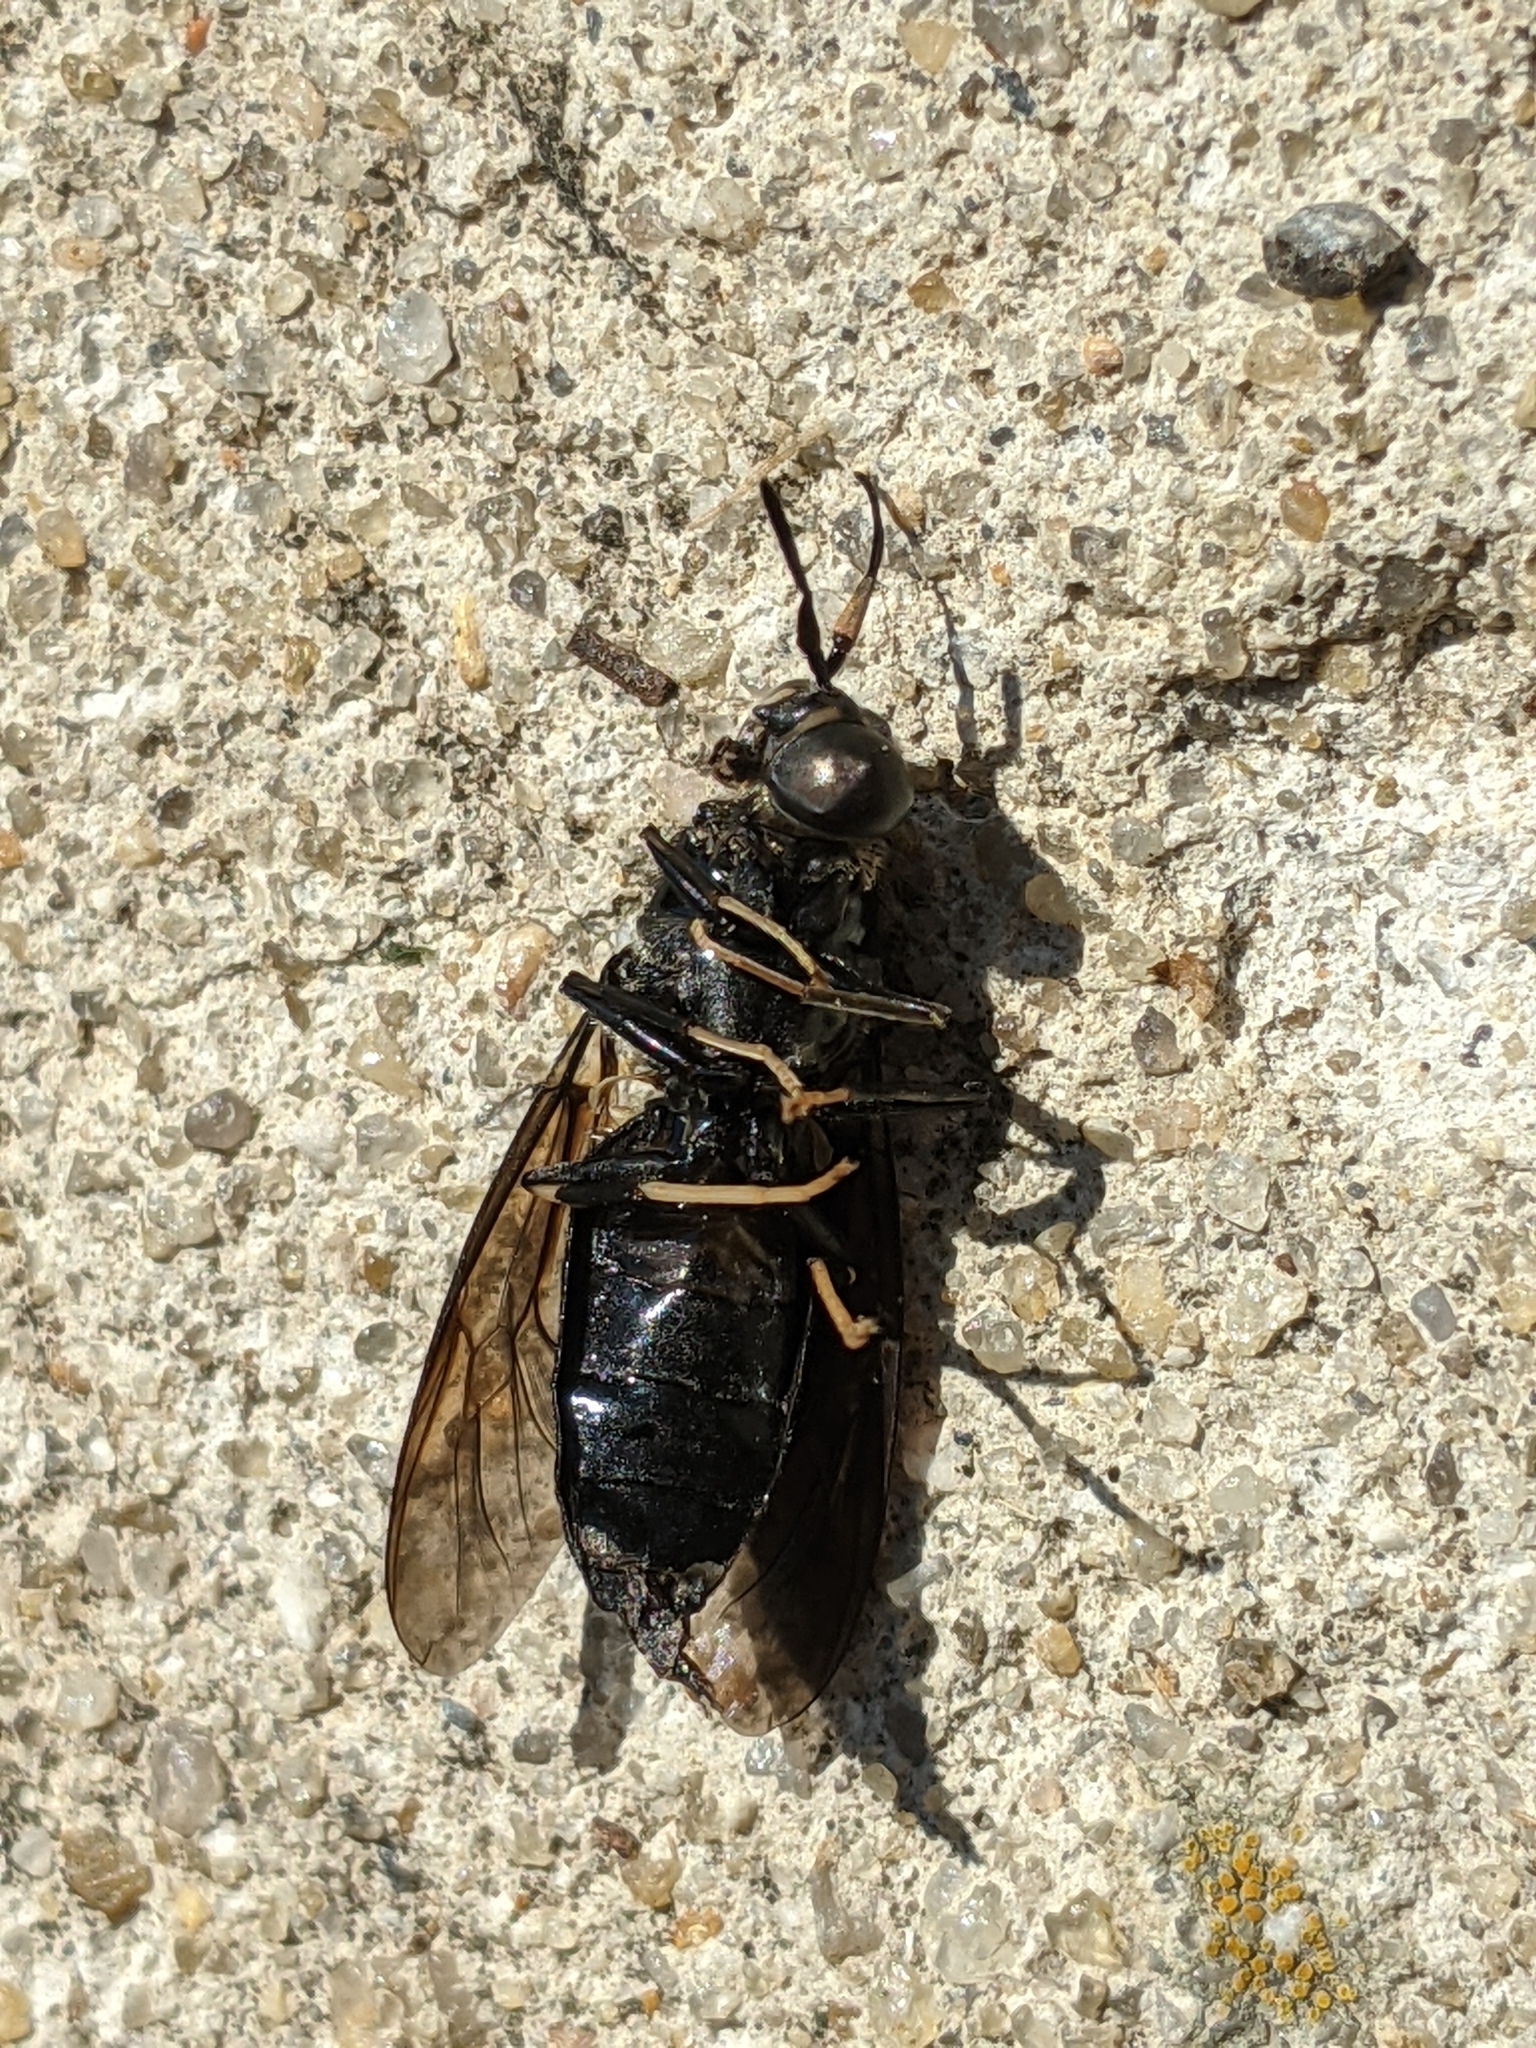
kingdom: Animalia
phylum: Arthropoda
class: Insecta
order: Diptera
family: Stratiomyidae
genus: Hermetia
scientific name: Hermetia illucens
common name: Black soldier fly
